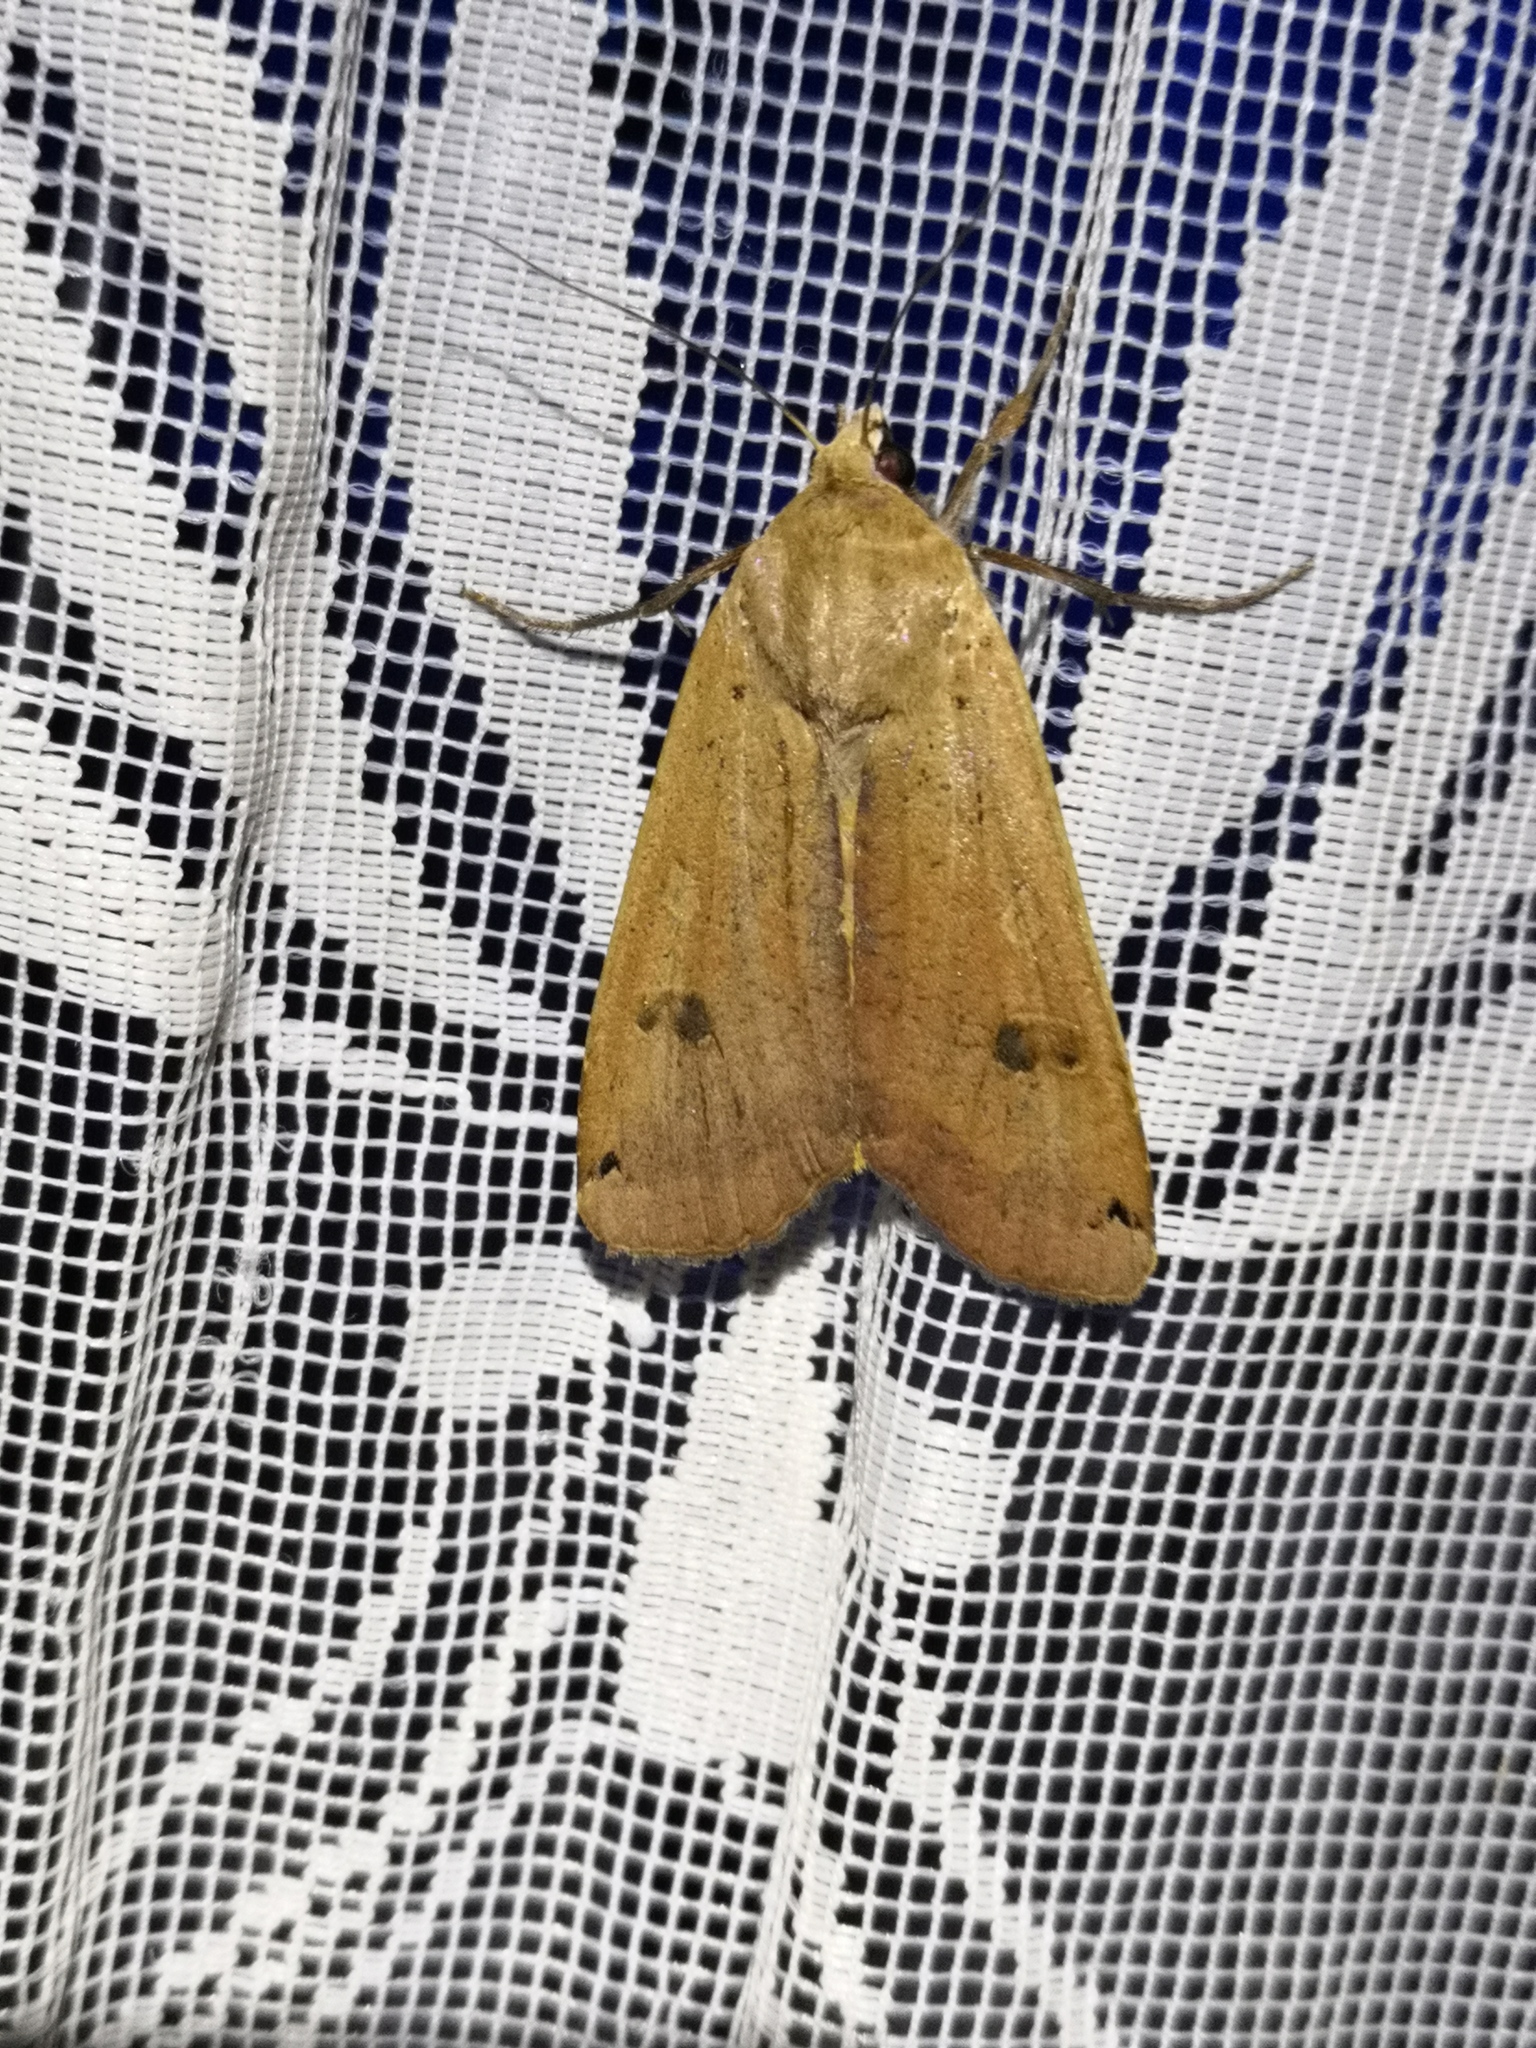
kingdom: Animalia
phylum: Arthropoda
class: Insecta
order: Lepidoptera
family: Noctuidae
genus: Noctua
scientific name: Noctua pronuba
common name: Large yellow underwing
